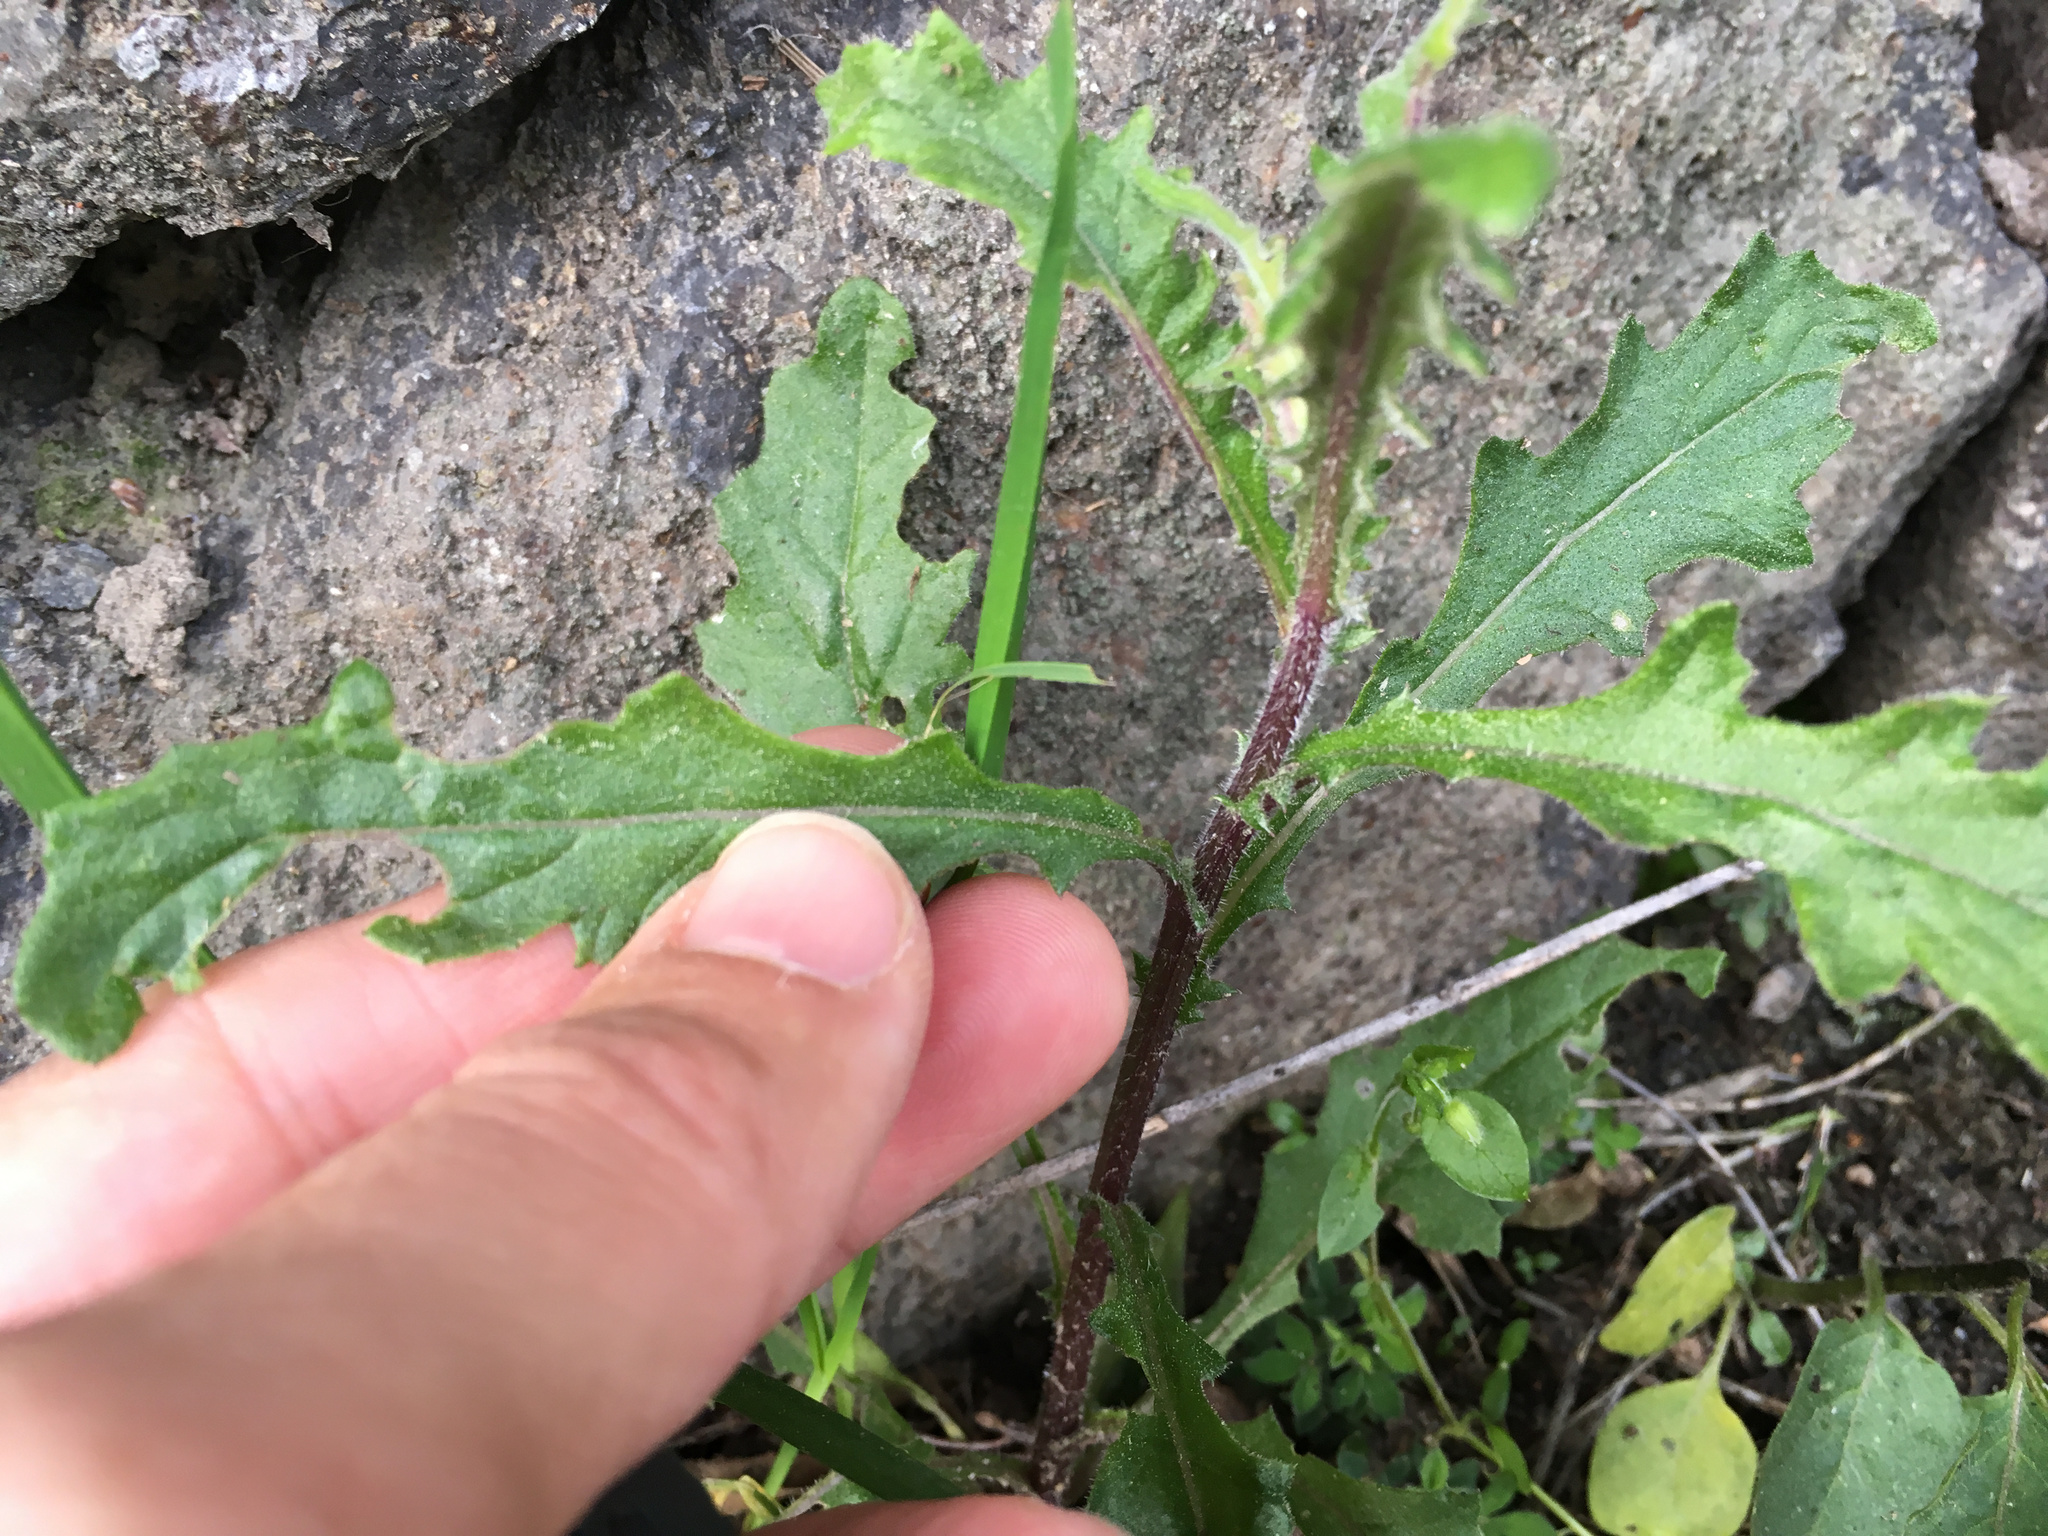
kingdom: Plantae
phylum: Tracheophyta
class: Magnoliopsida
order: Asterales
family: Asteraceae
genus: Senecio
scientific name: Senecio hispidulus
